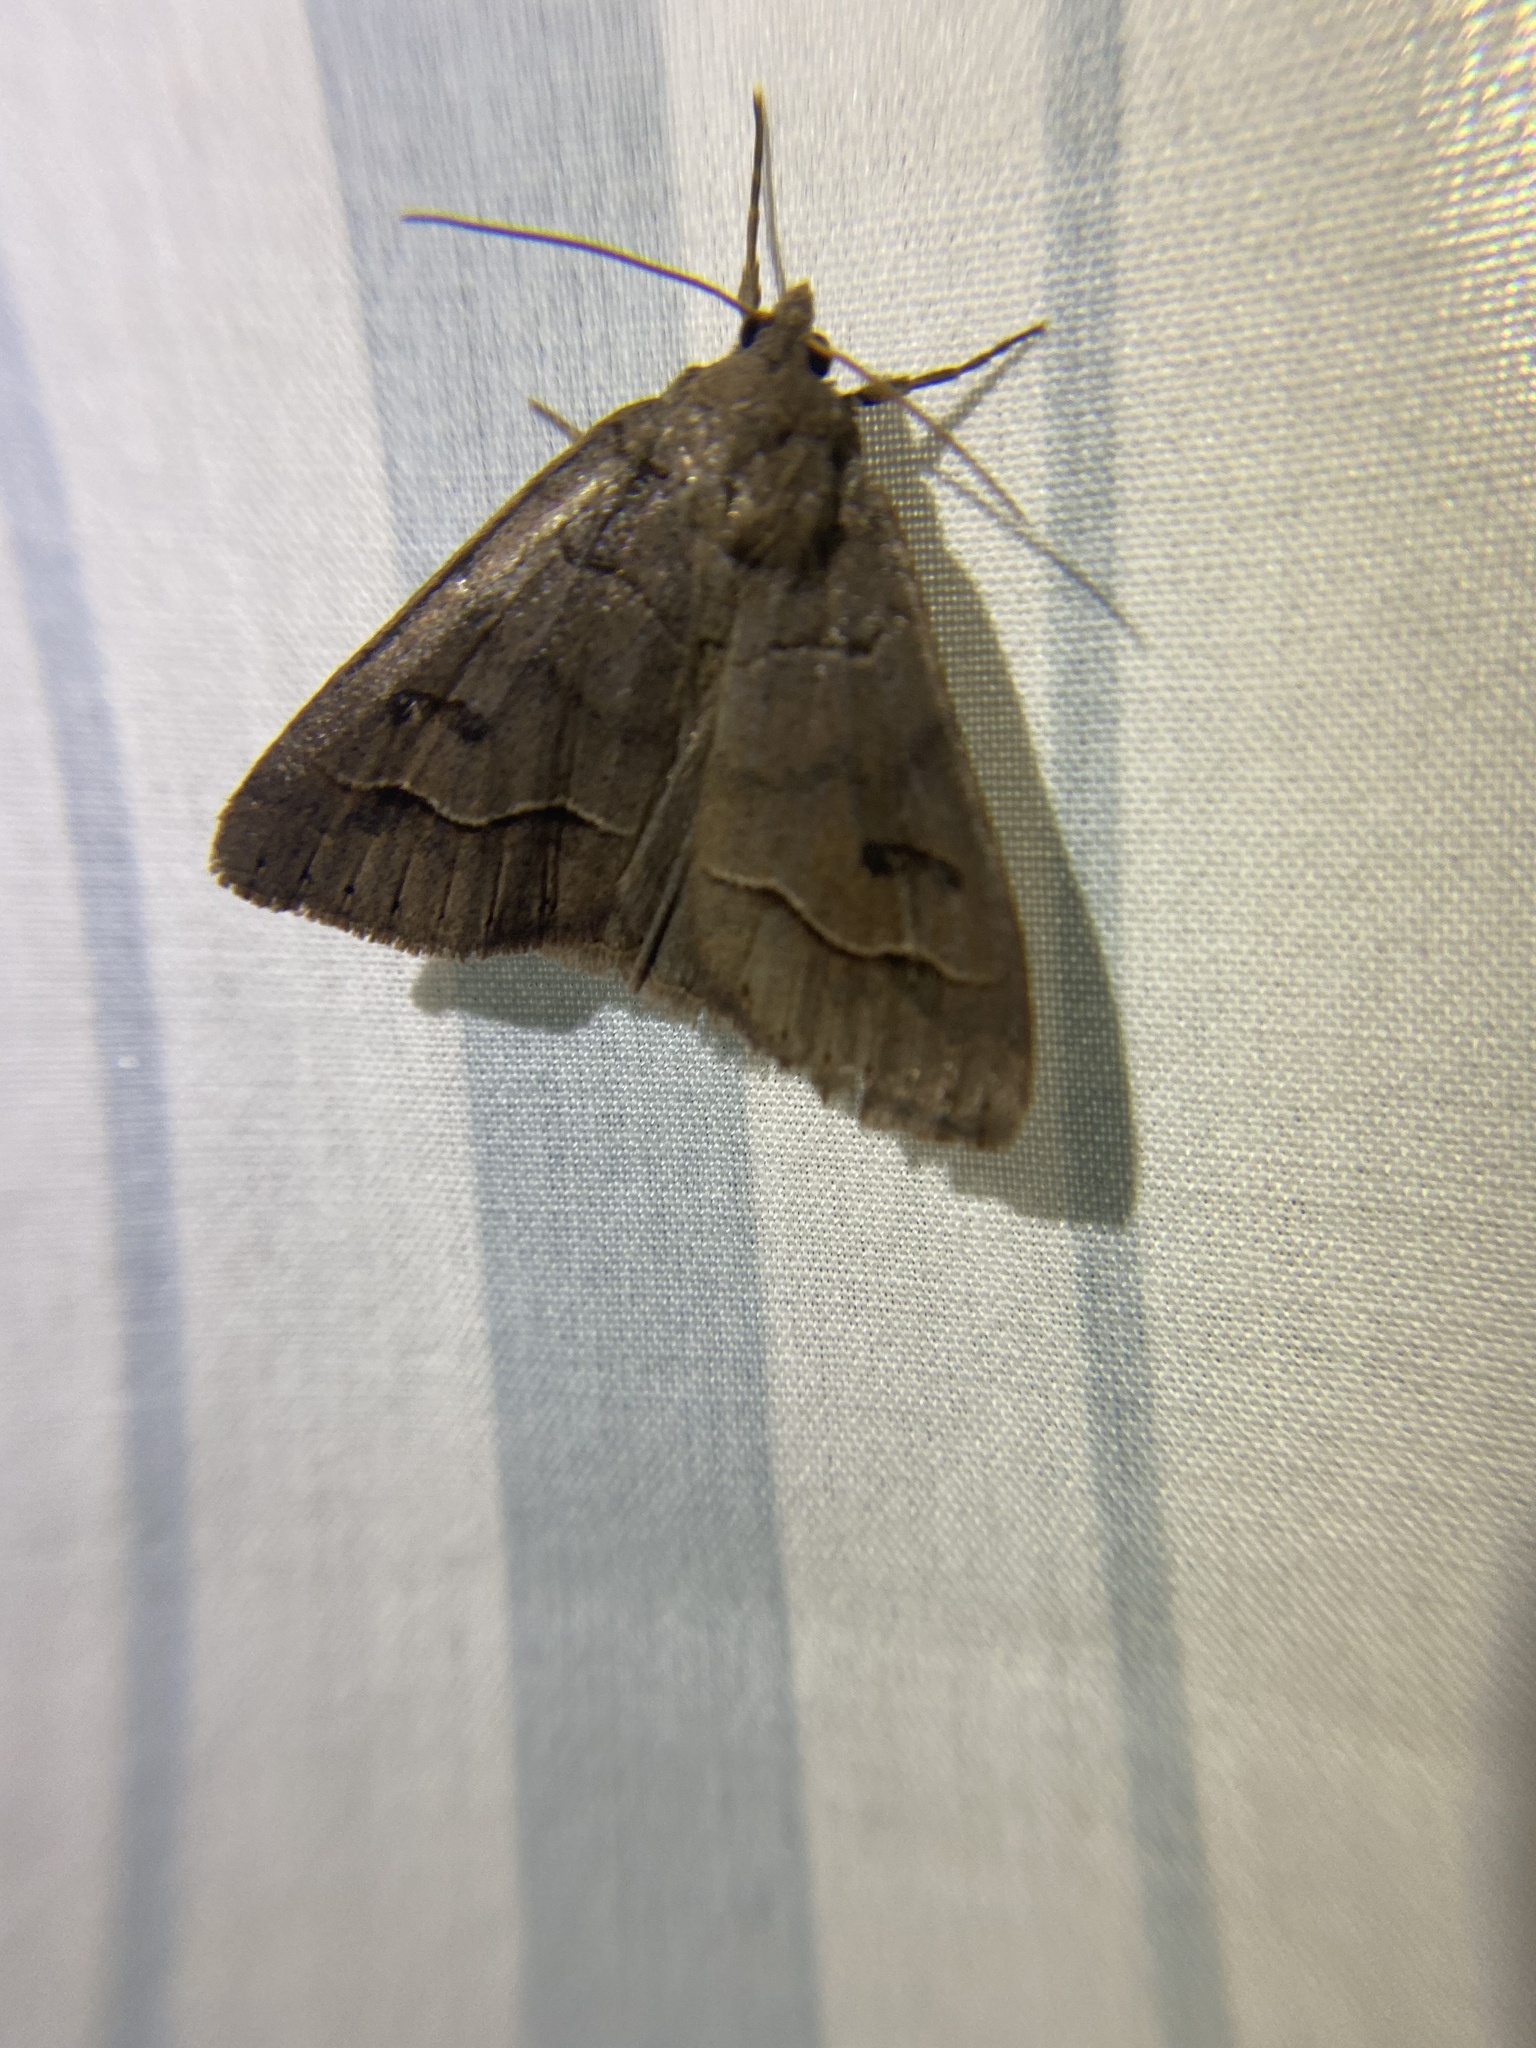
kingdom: Animalia
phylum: Arthropoda
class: Insecta
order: Lepidoptera
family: Erebidae
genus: Phoberia
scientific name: Phoberia atomaris
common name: Common oak moth
